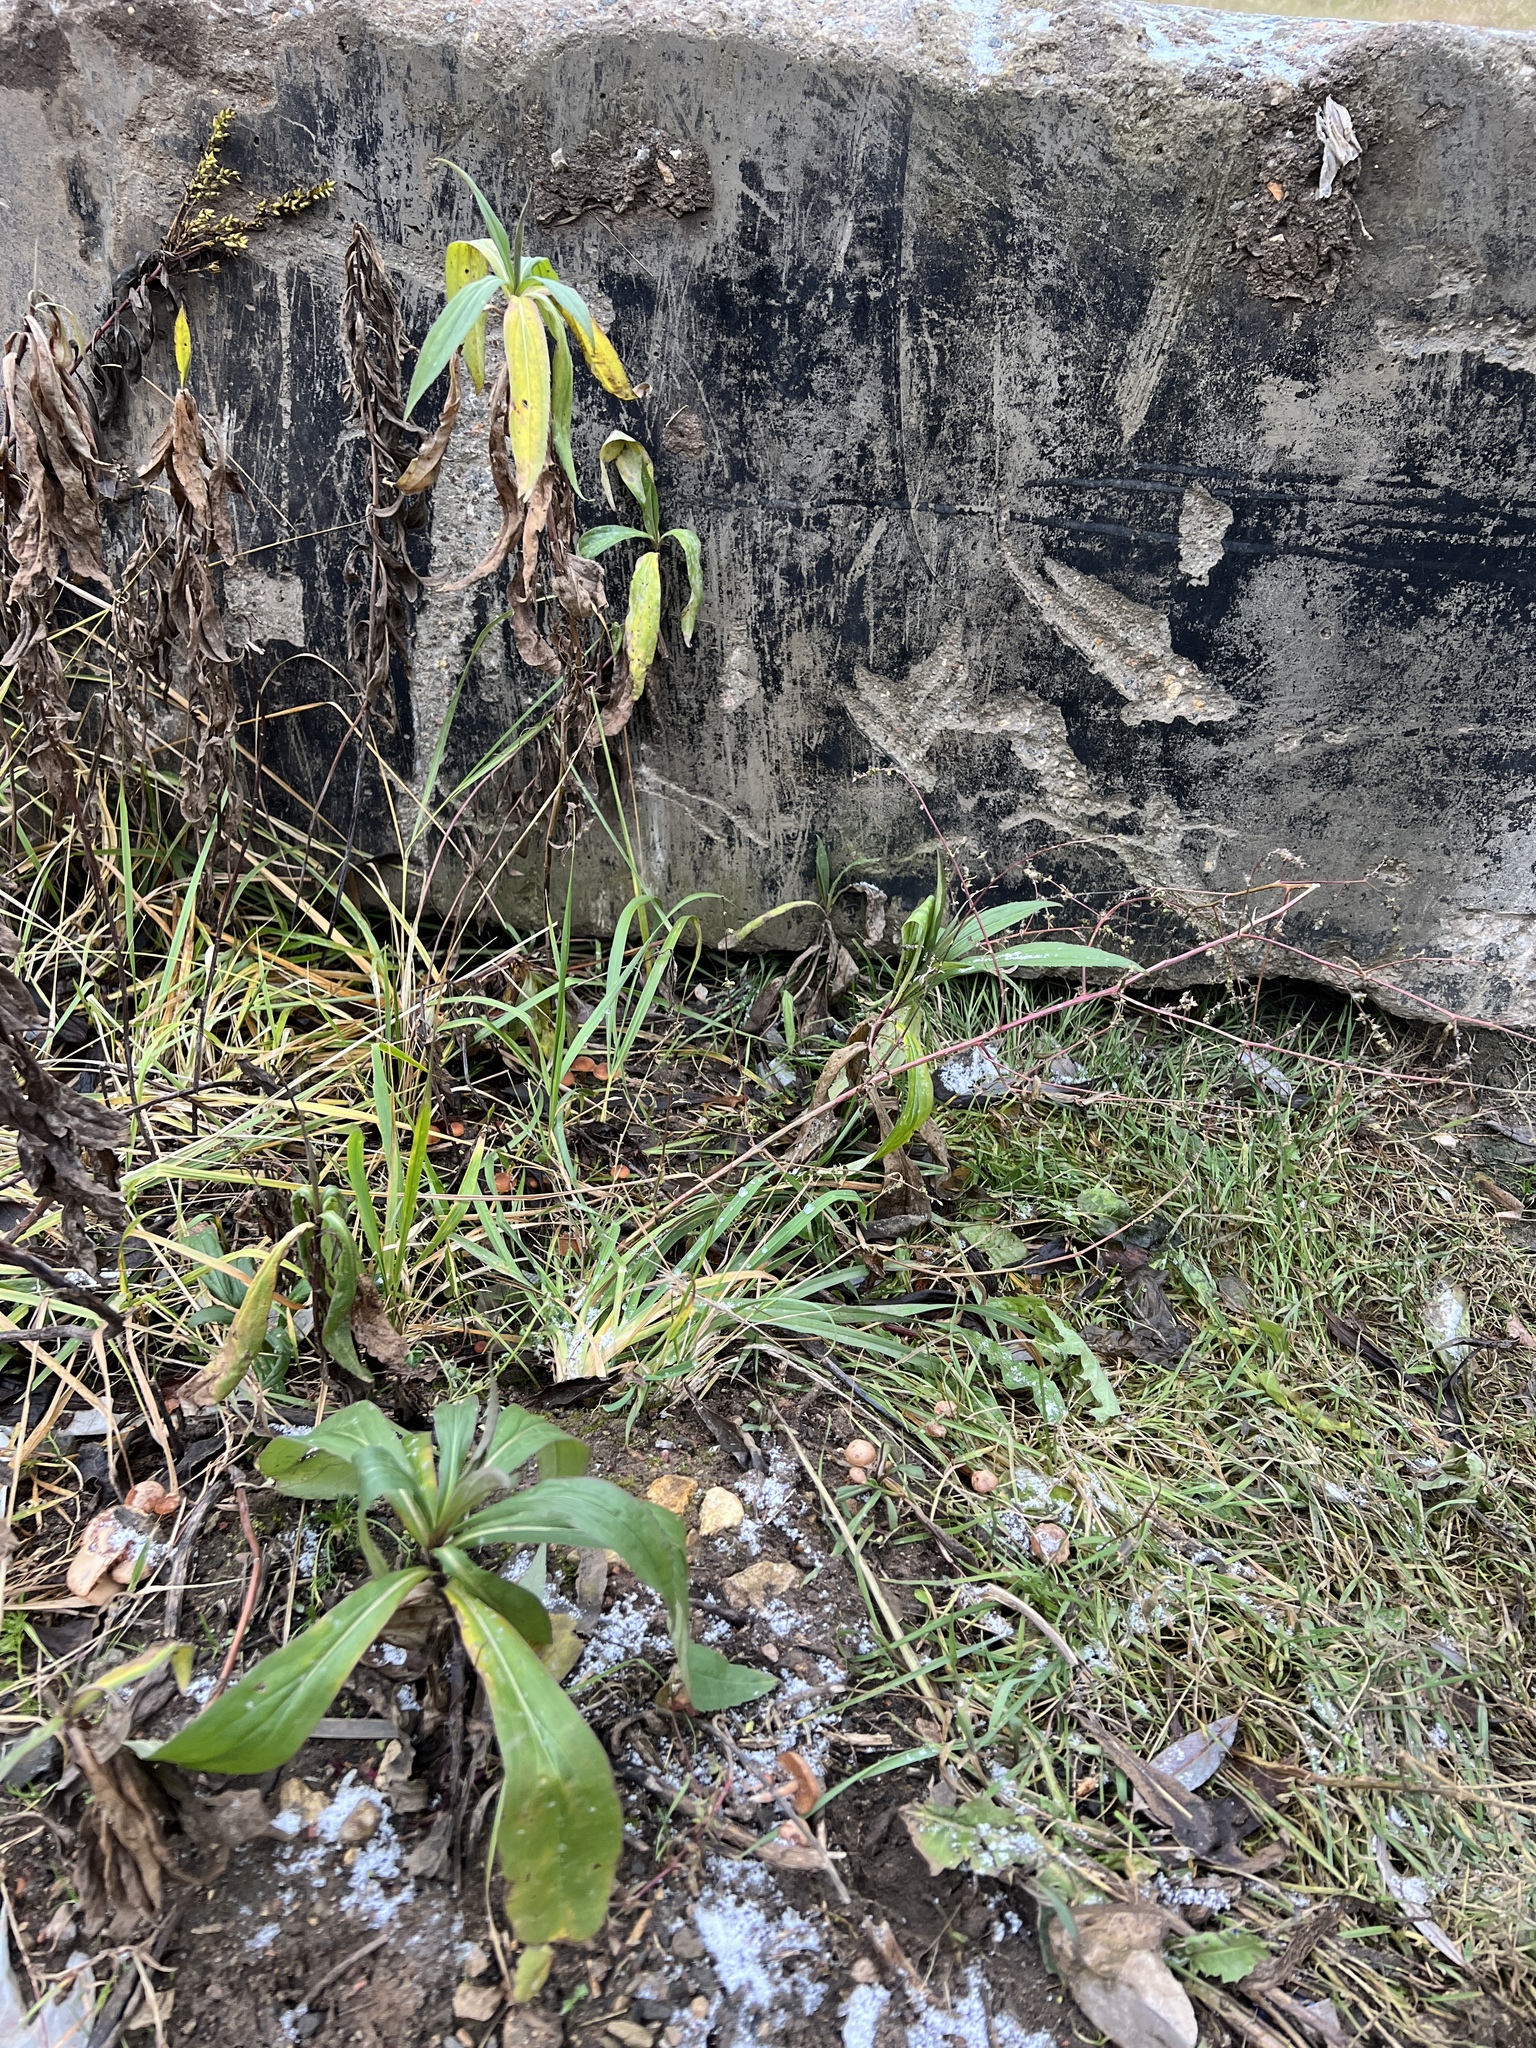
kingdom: Plantae
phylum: Tracheophyta
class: Magnoliopsida
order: Asterales
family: Asteraceae
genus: Solidago
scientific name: Solidago gigantea
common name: Giant goldenrod
